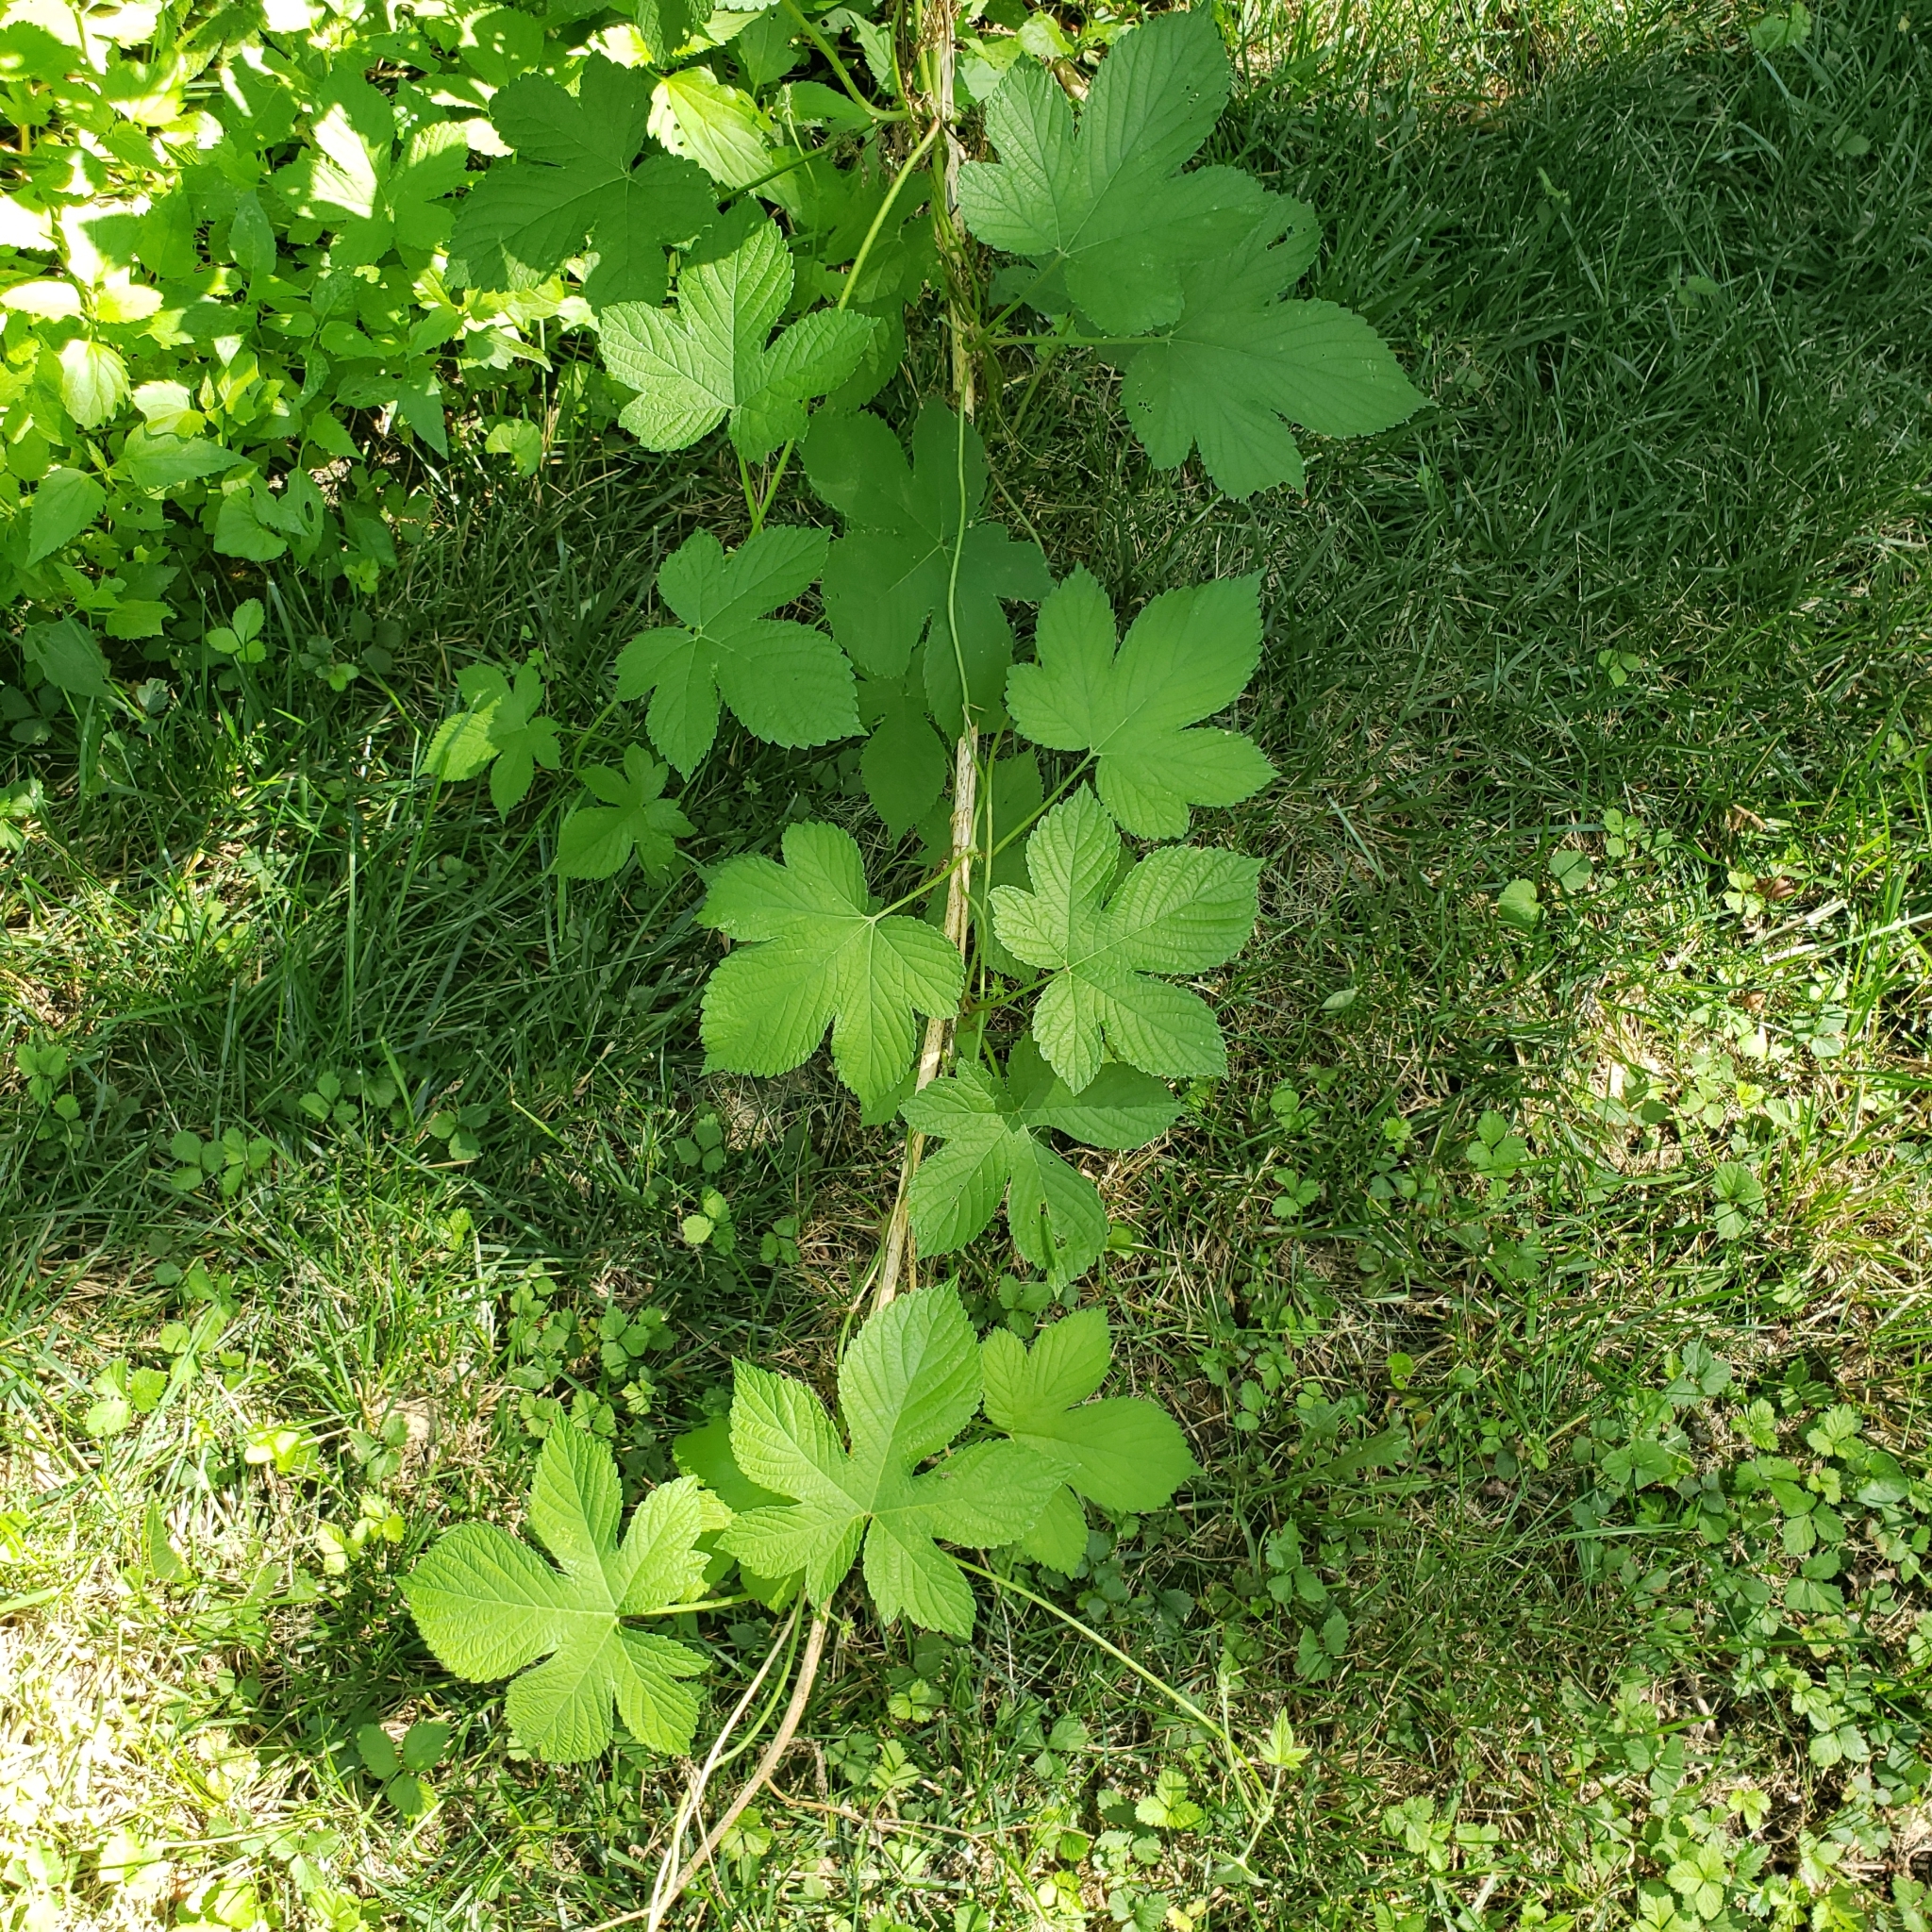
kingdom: Plantae
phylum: Tracheophyta
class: Magnoliopsida
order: Rosales
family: Cannabaceae
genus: Humulus
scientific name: Humulus scandens
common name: Japanese hop
